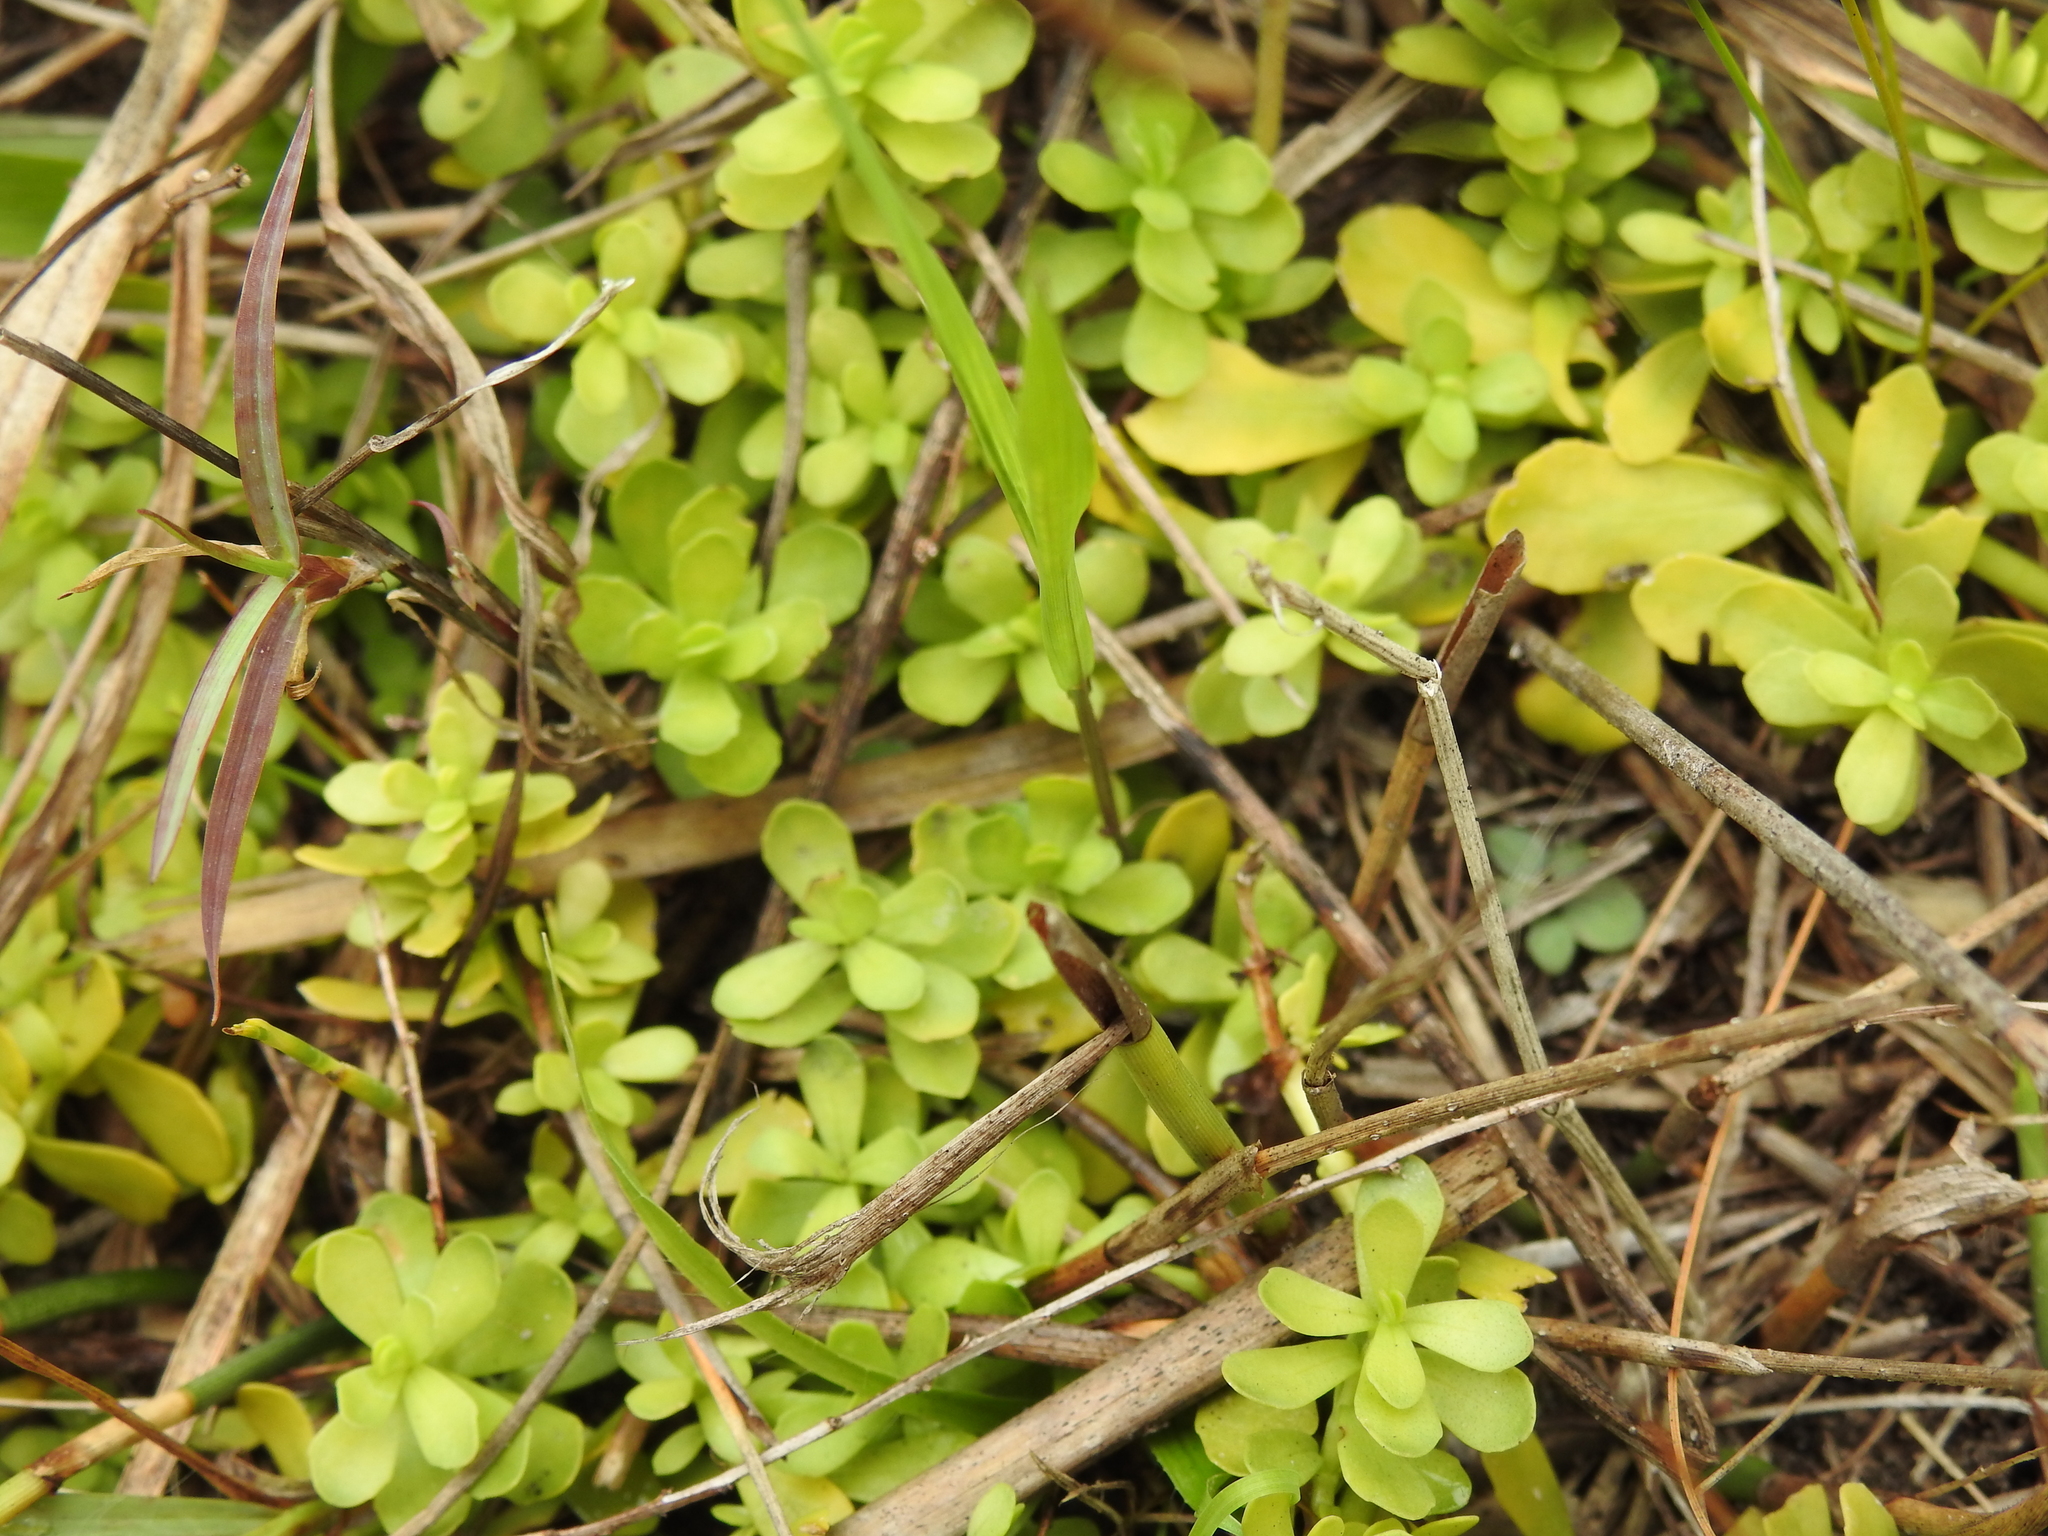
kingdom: Plantae
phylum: Tracheophyta
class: Magnoliopsida
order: Lamiales
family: Plantaginaceae
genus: Bacopa
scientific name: Bacopa monnieri
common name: Indian-pennywort
